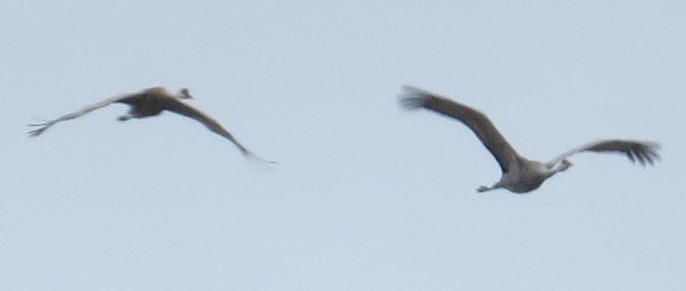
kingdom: Animalia
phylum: Chordata
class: Aves
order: Gruiformes
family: Gruidae
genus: Grus
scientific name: Grus canadensis
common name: Sandhill crane
